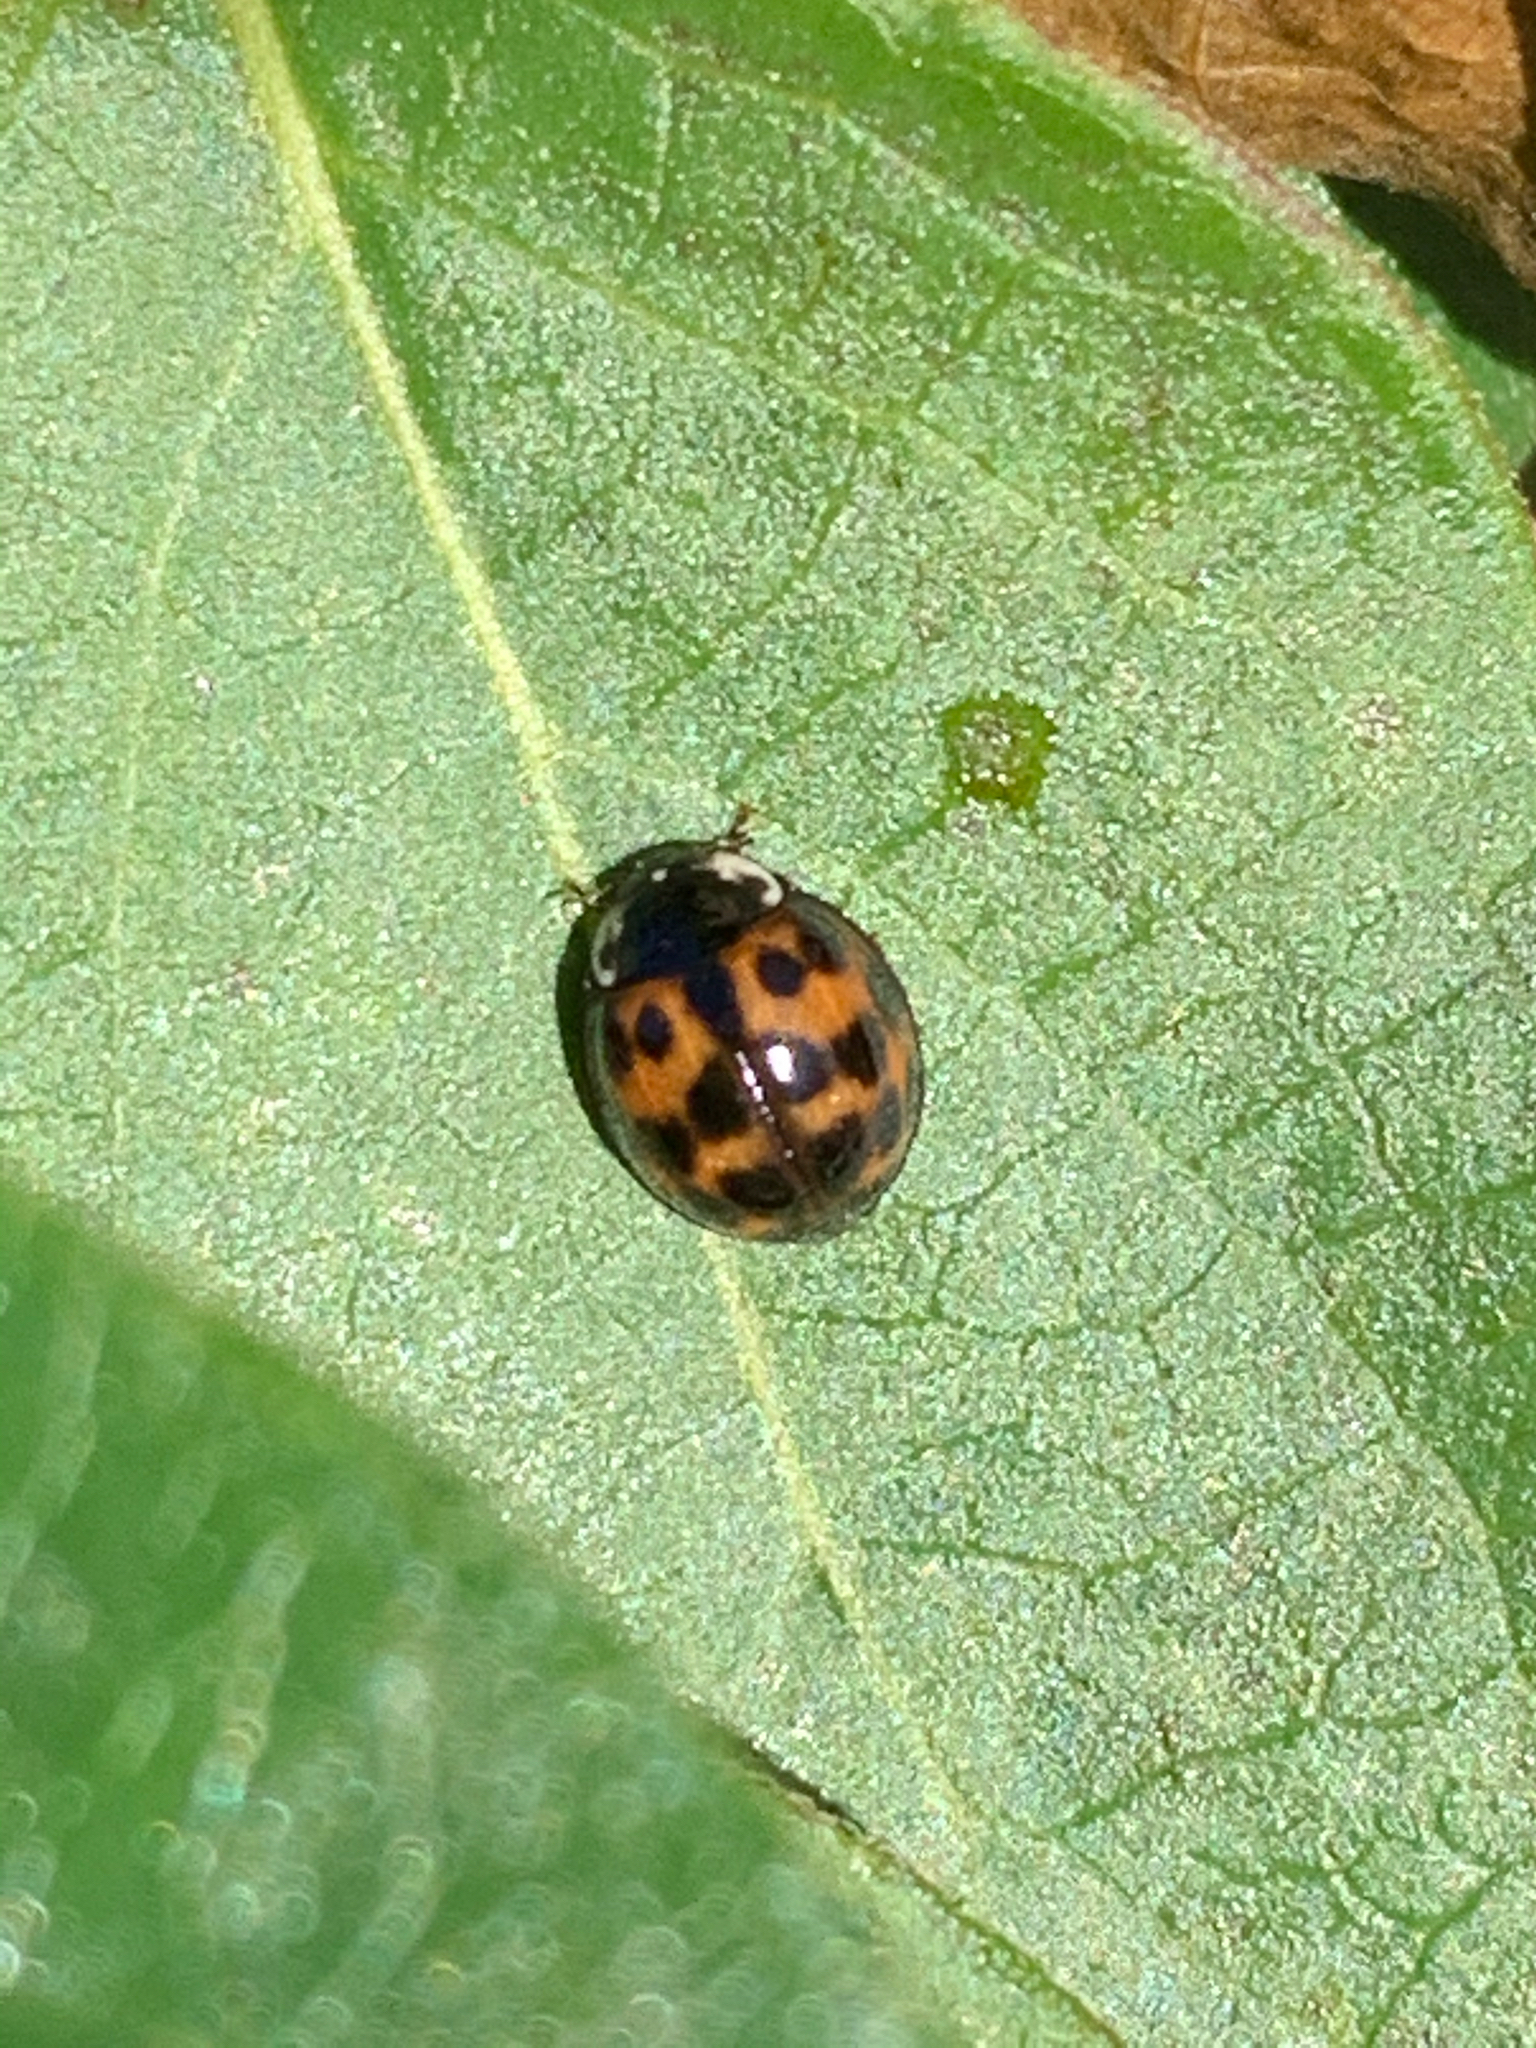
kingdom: Animalia
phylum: Arthropoda
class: Insecta
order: Coleoptera
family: Coccinellidae
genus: Harmonia
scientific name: Harmonia axyridis
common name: Harlequin ladybird
